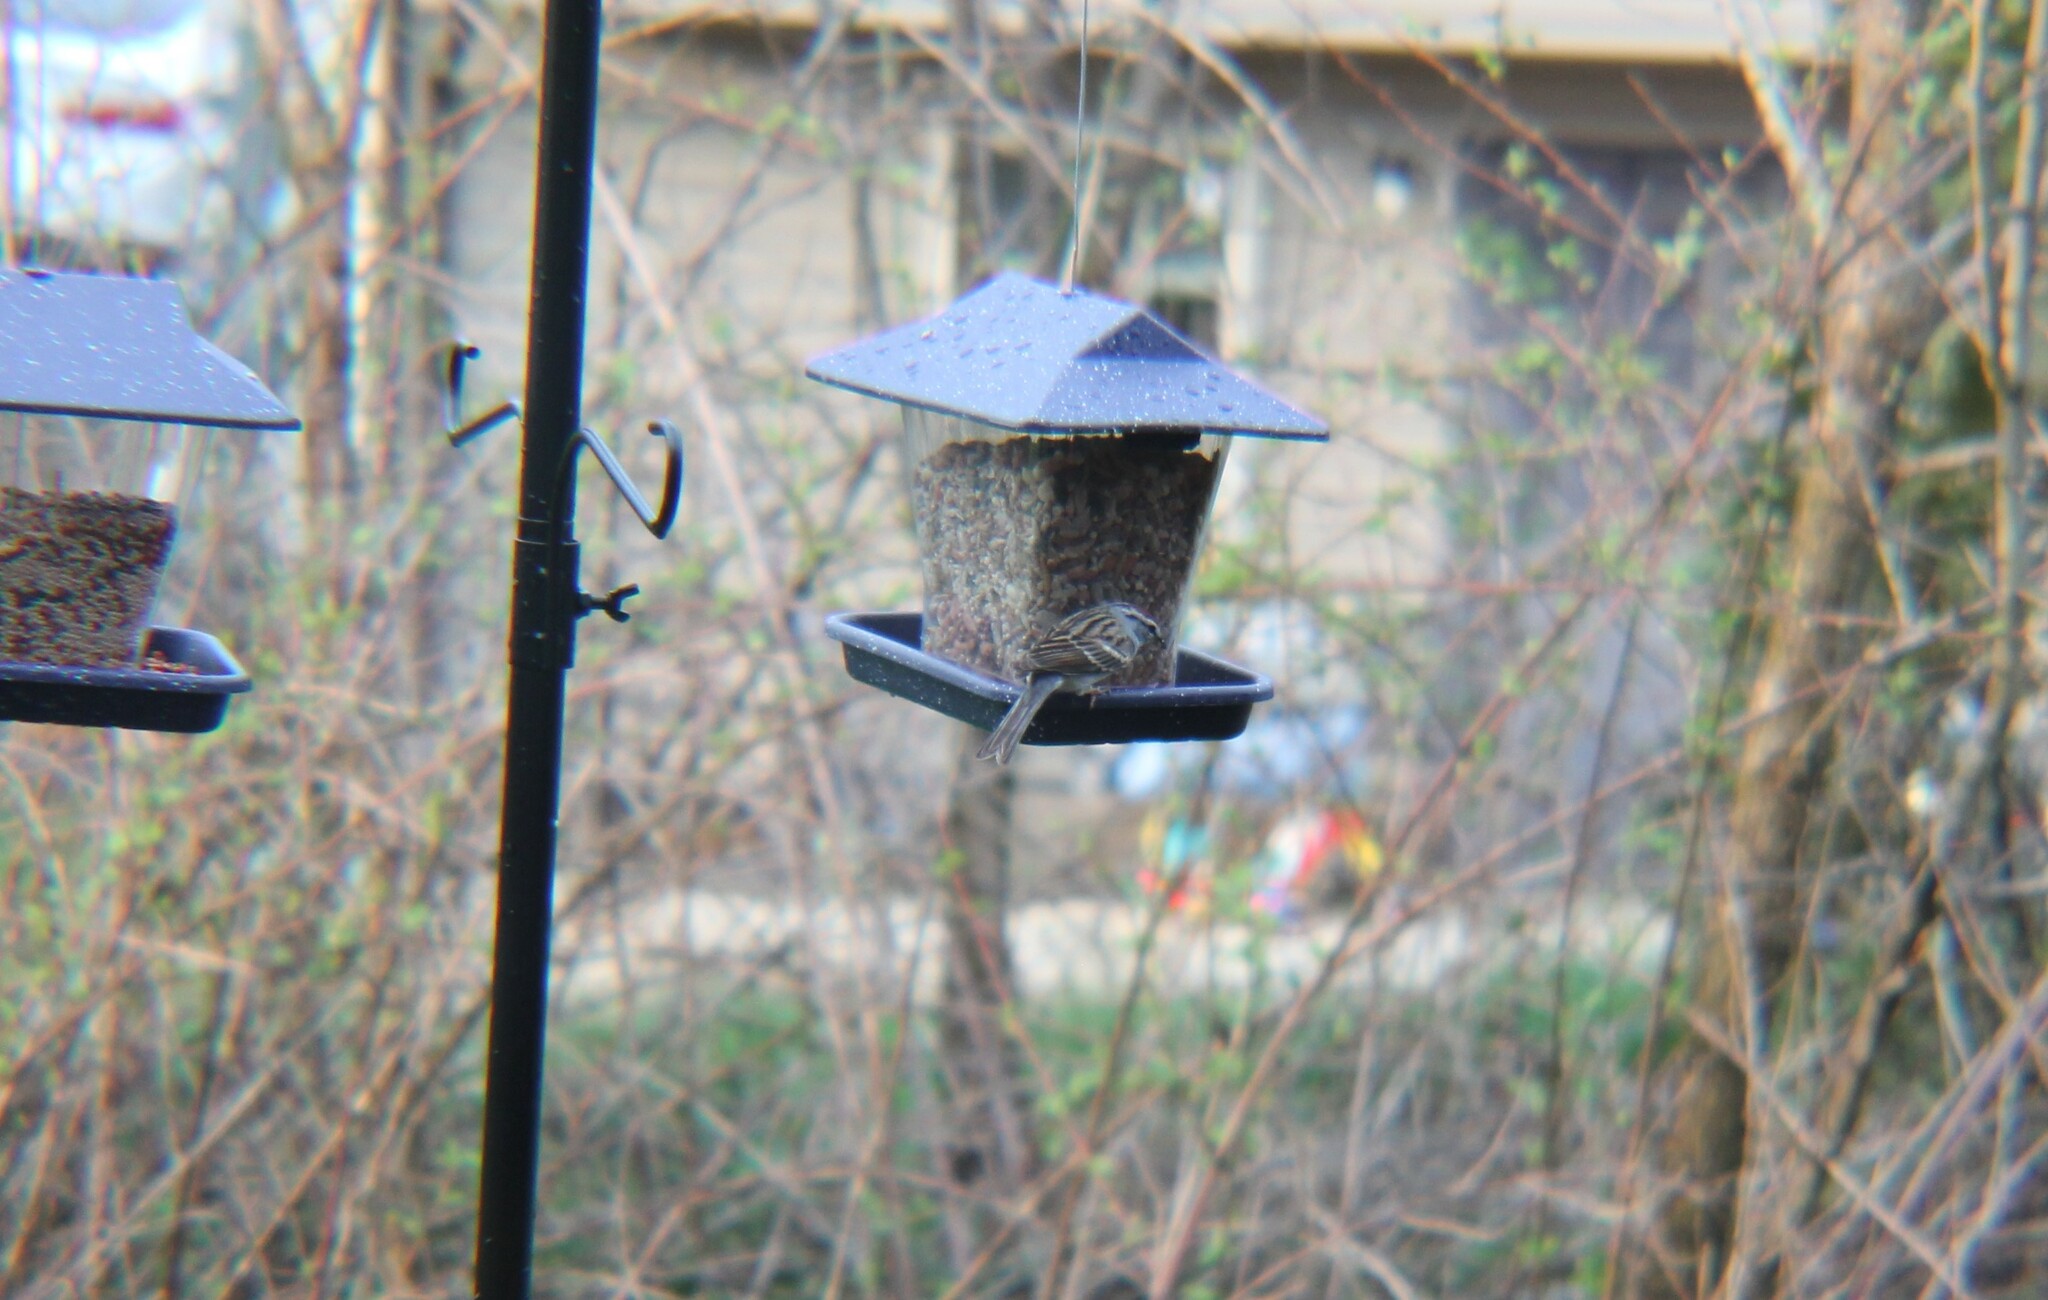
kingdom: Animalia
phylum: Chordata
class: Aves
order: Passeriformes
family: Passerellidae
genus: Spizella
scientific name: Spizella passerina
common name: Chipping sparrow
